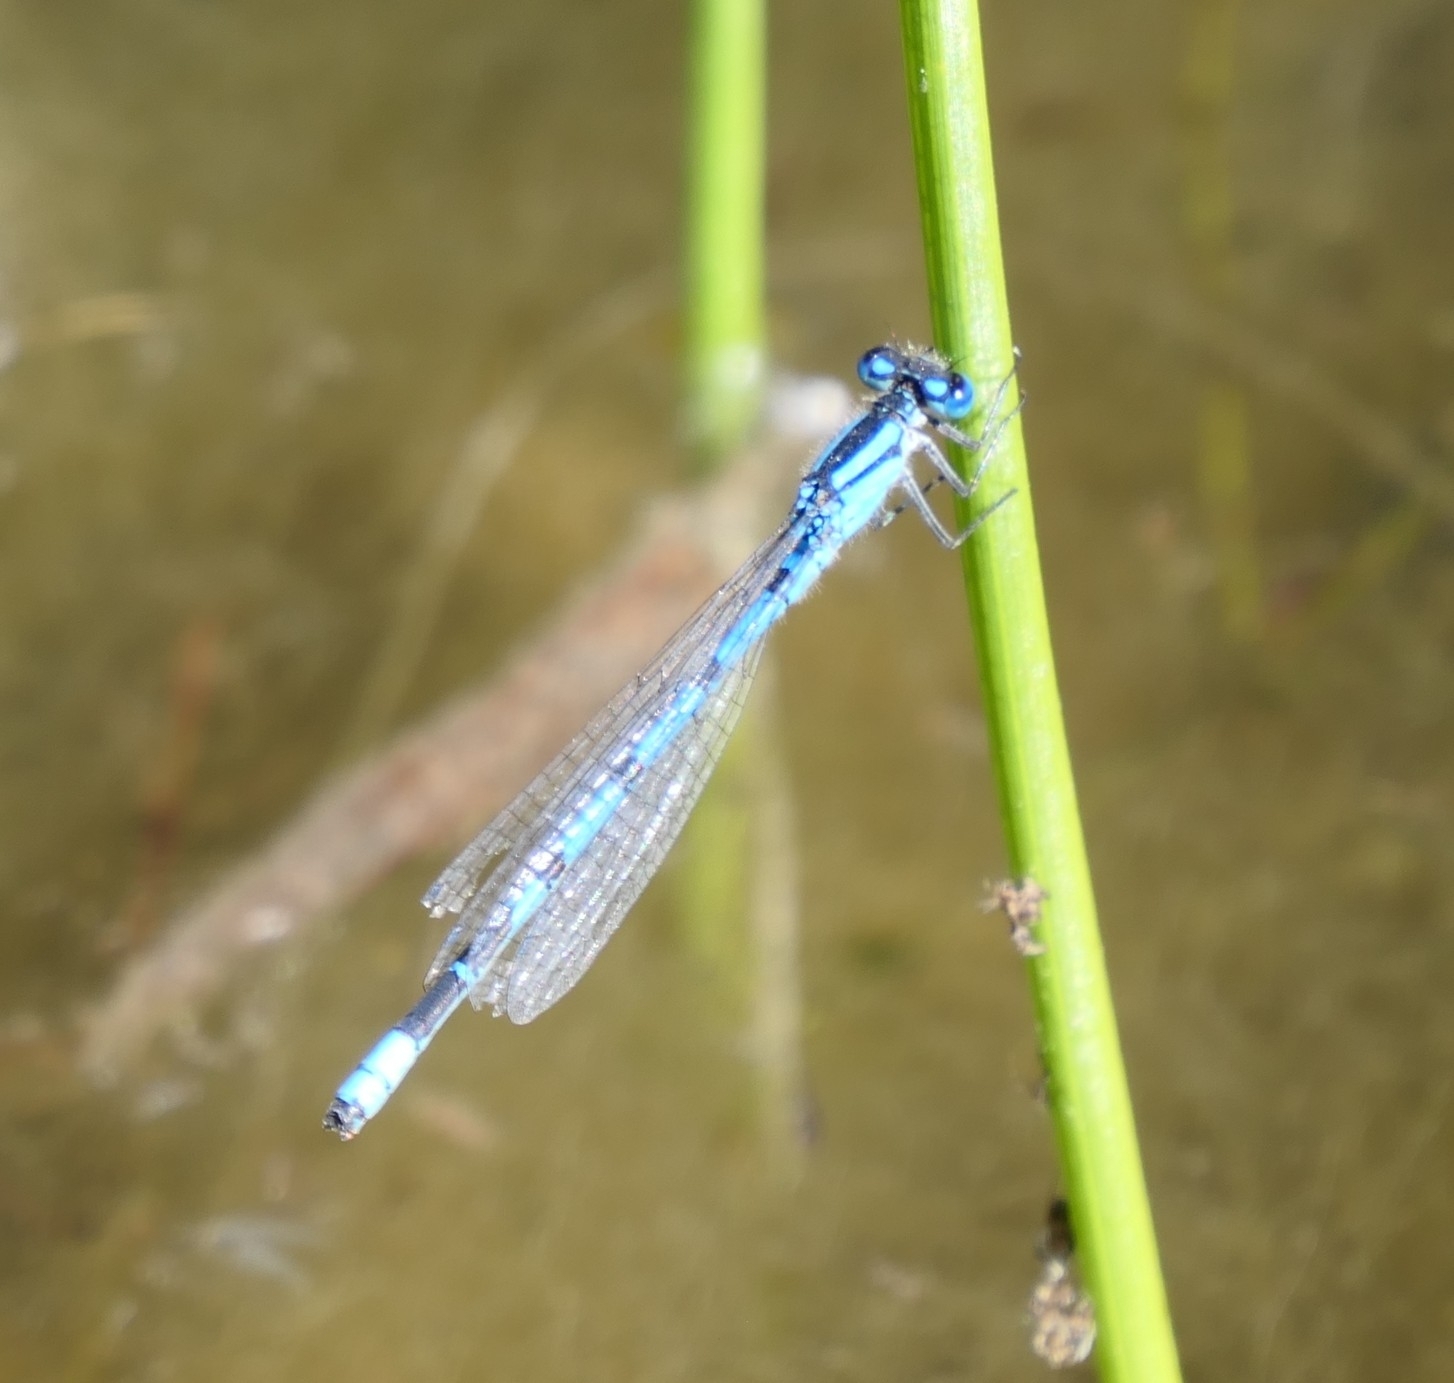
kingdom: Animalia
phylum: Arthropoda
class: Insecta
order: Odonata
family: Coenagrionidae
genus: Enallagma
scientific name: Enallagma cyathigerum
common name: Common blue damselfly
